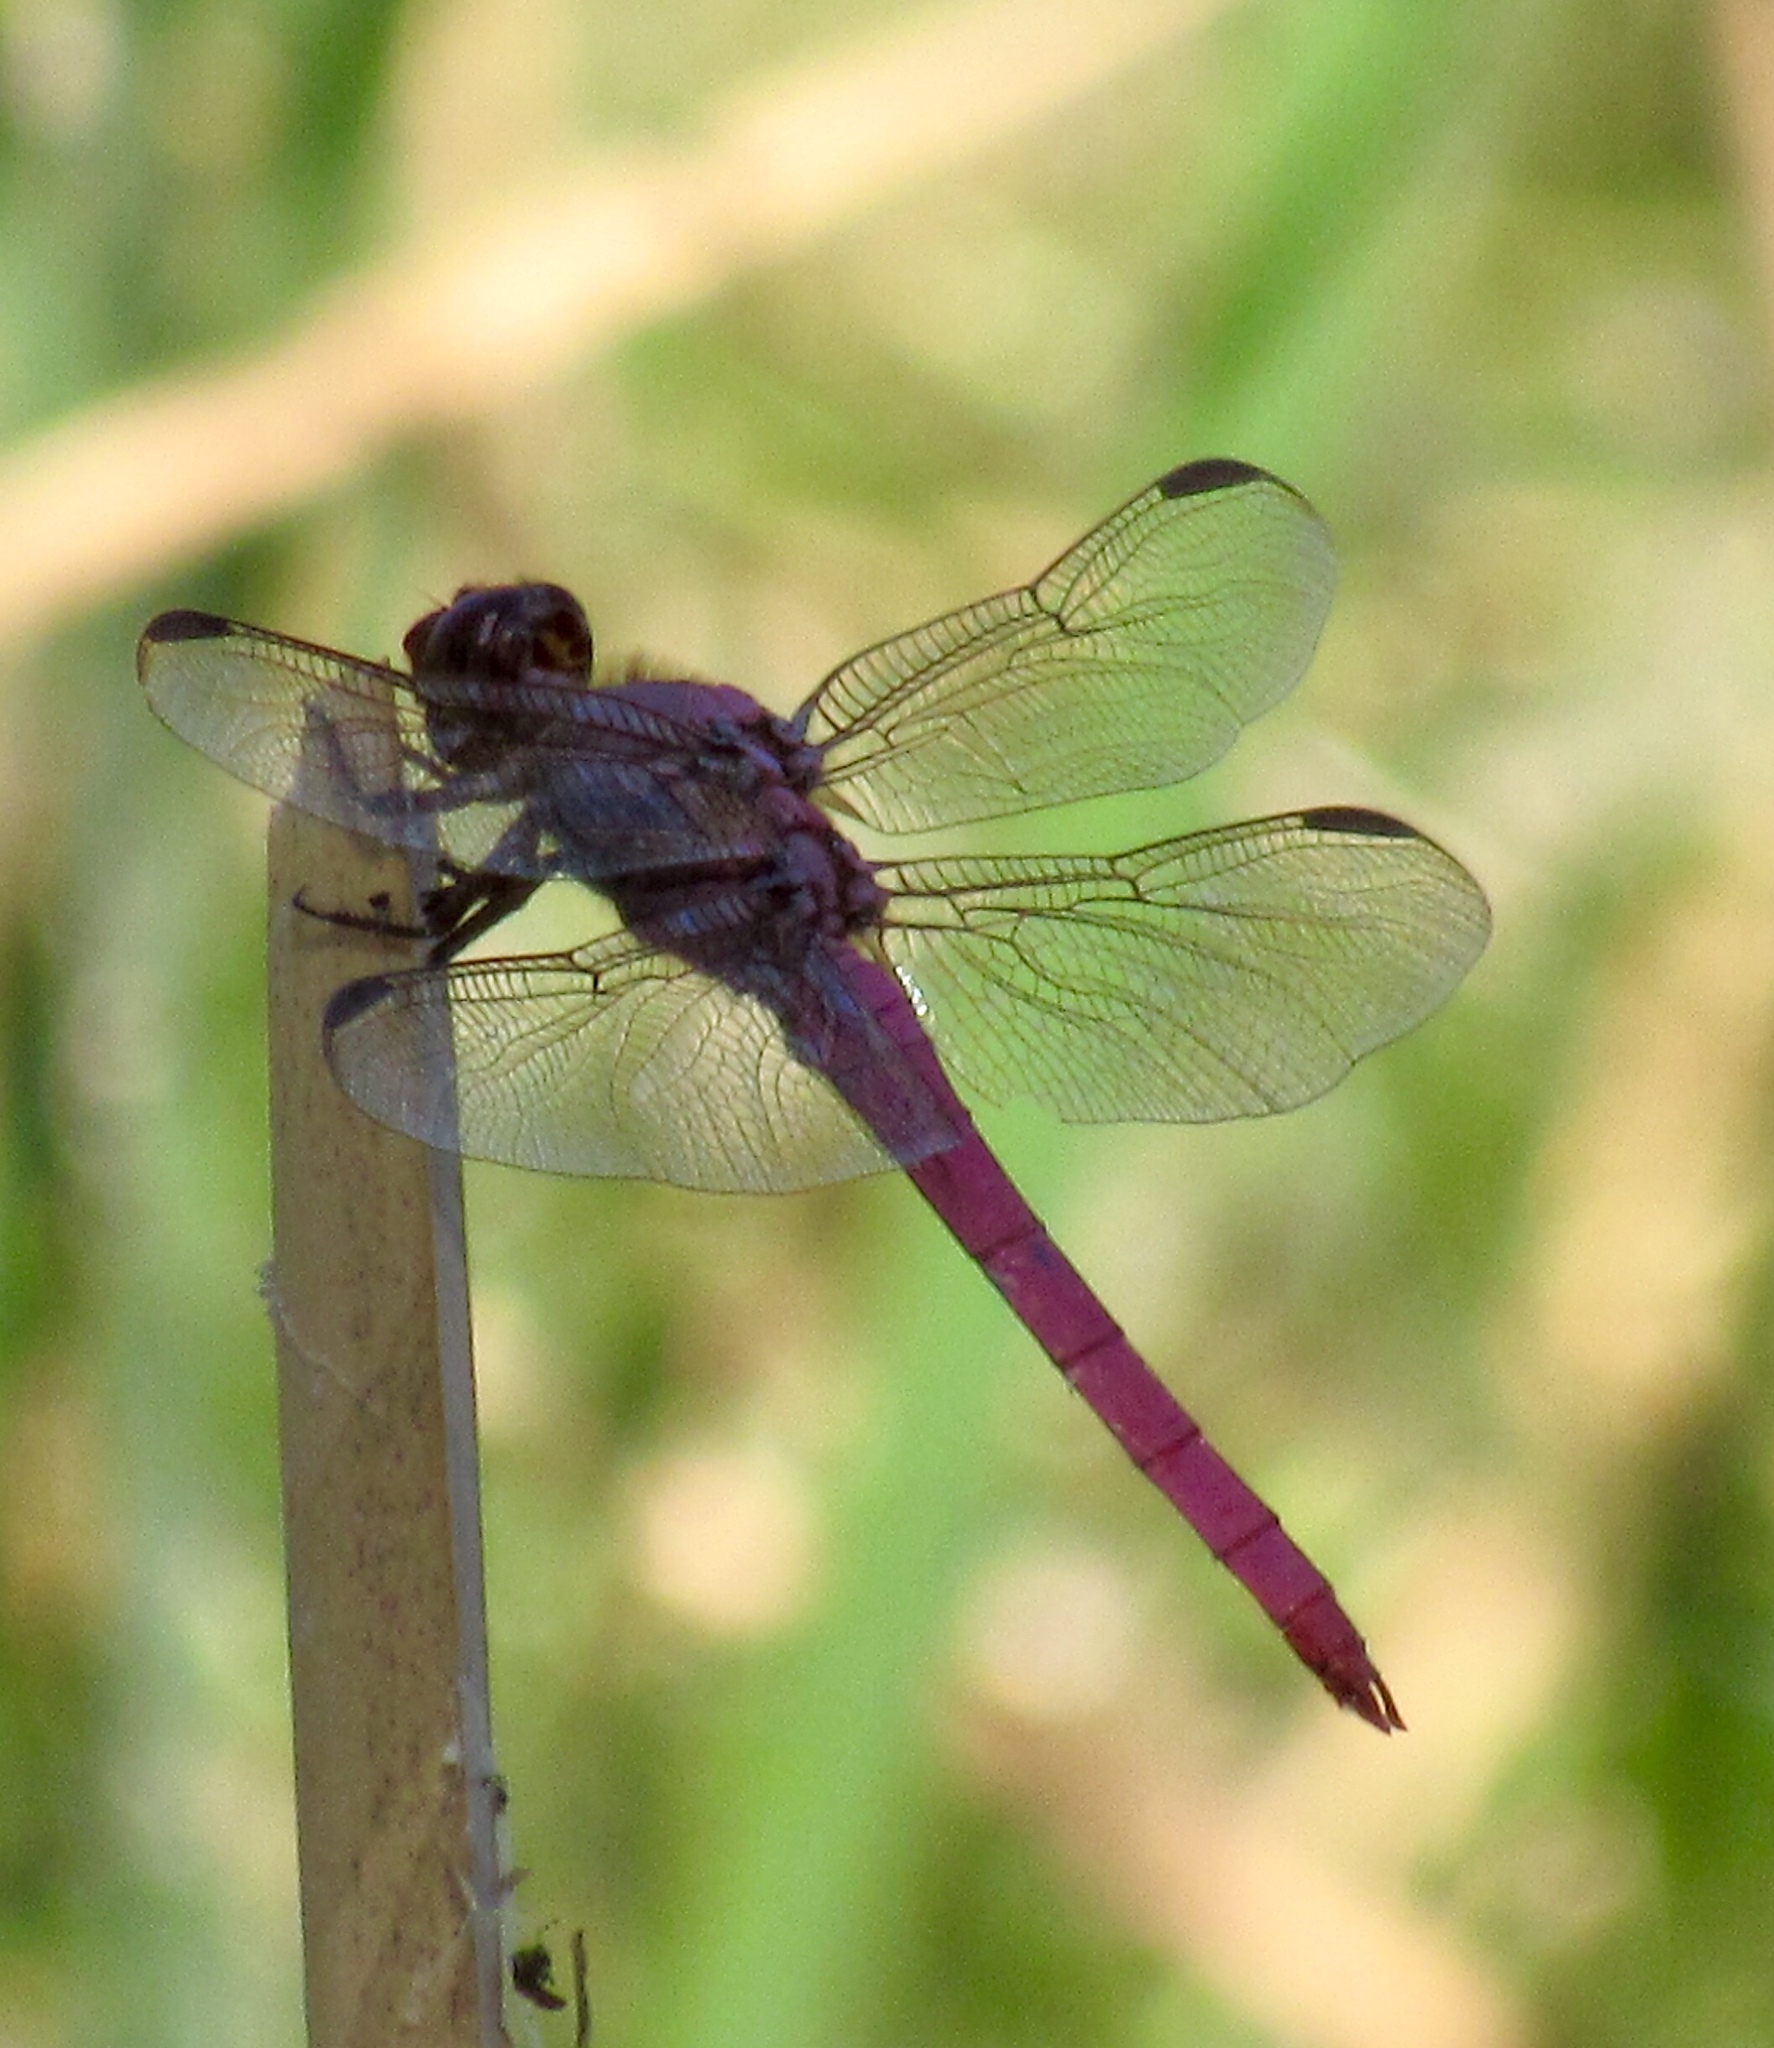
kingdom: Animalia
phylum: Arthropoda
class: Insecta
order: Odonata
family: Libellulidae
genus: Orthemis
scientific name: Orthemis ferruginea
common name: Roseate skimmer
